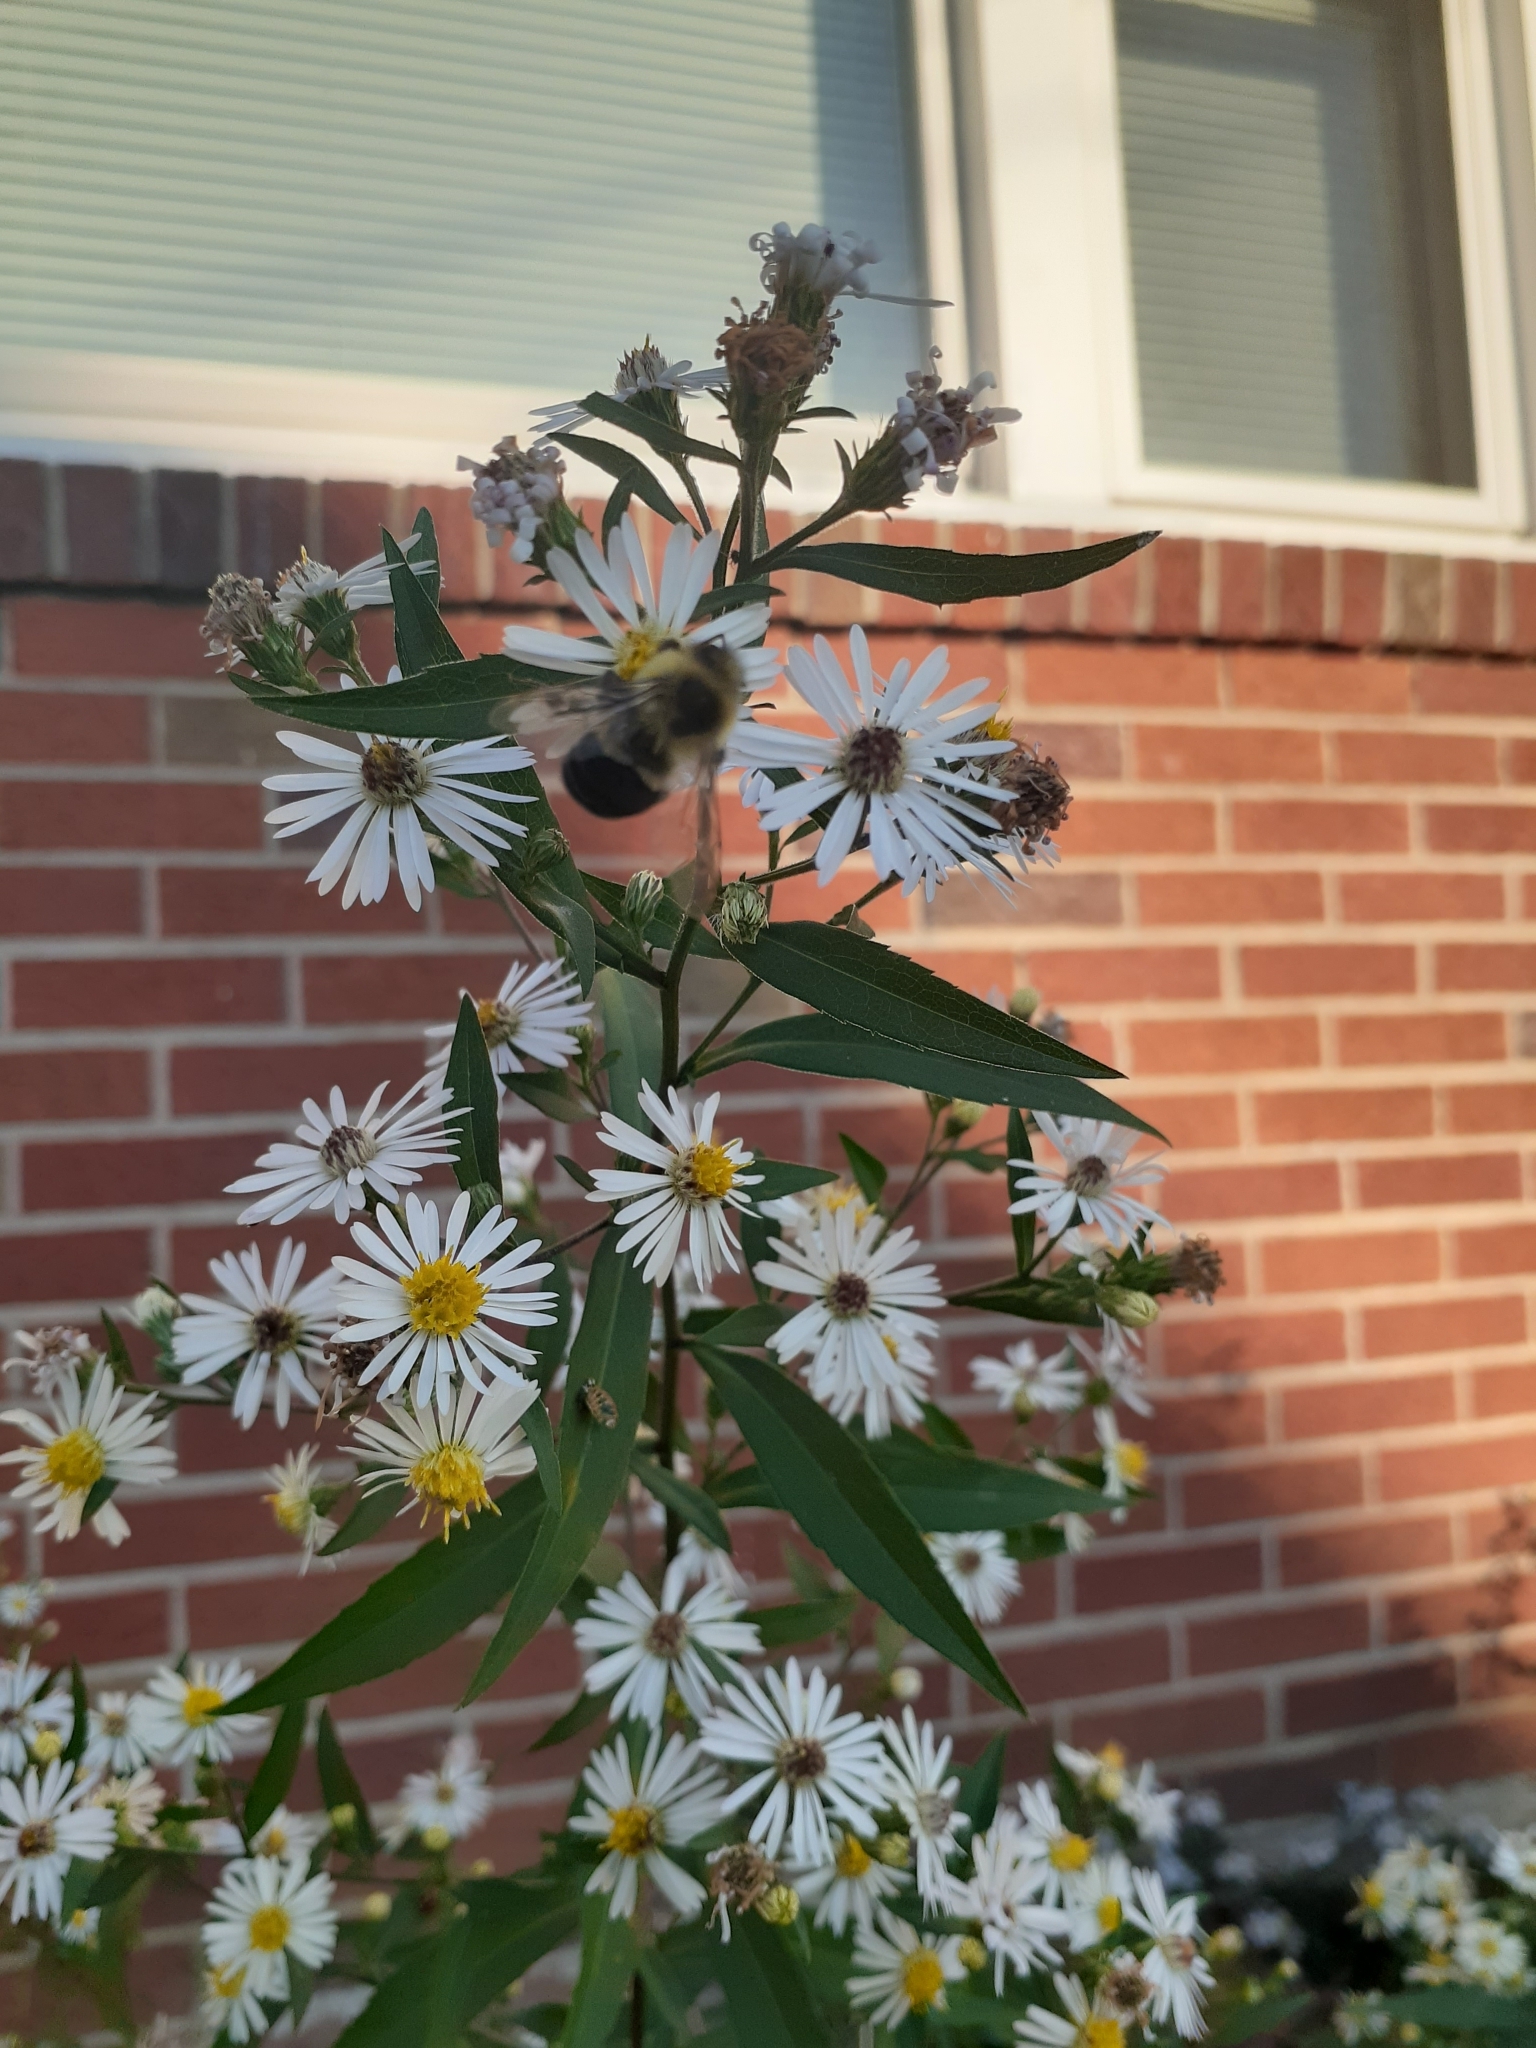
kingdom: Animalia
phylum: Arthropoda
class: Insecta
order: Hymenoptera
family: Apidae
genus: Bombus
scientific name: Bombus impatiens
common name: Common eastern bumble bee
